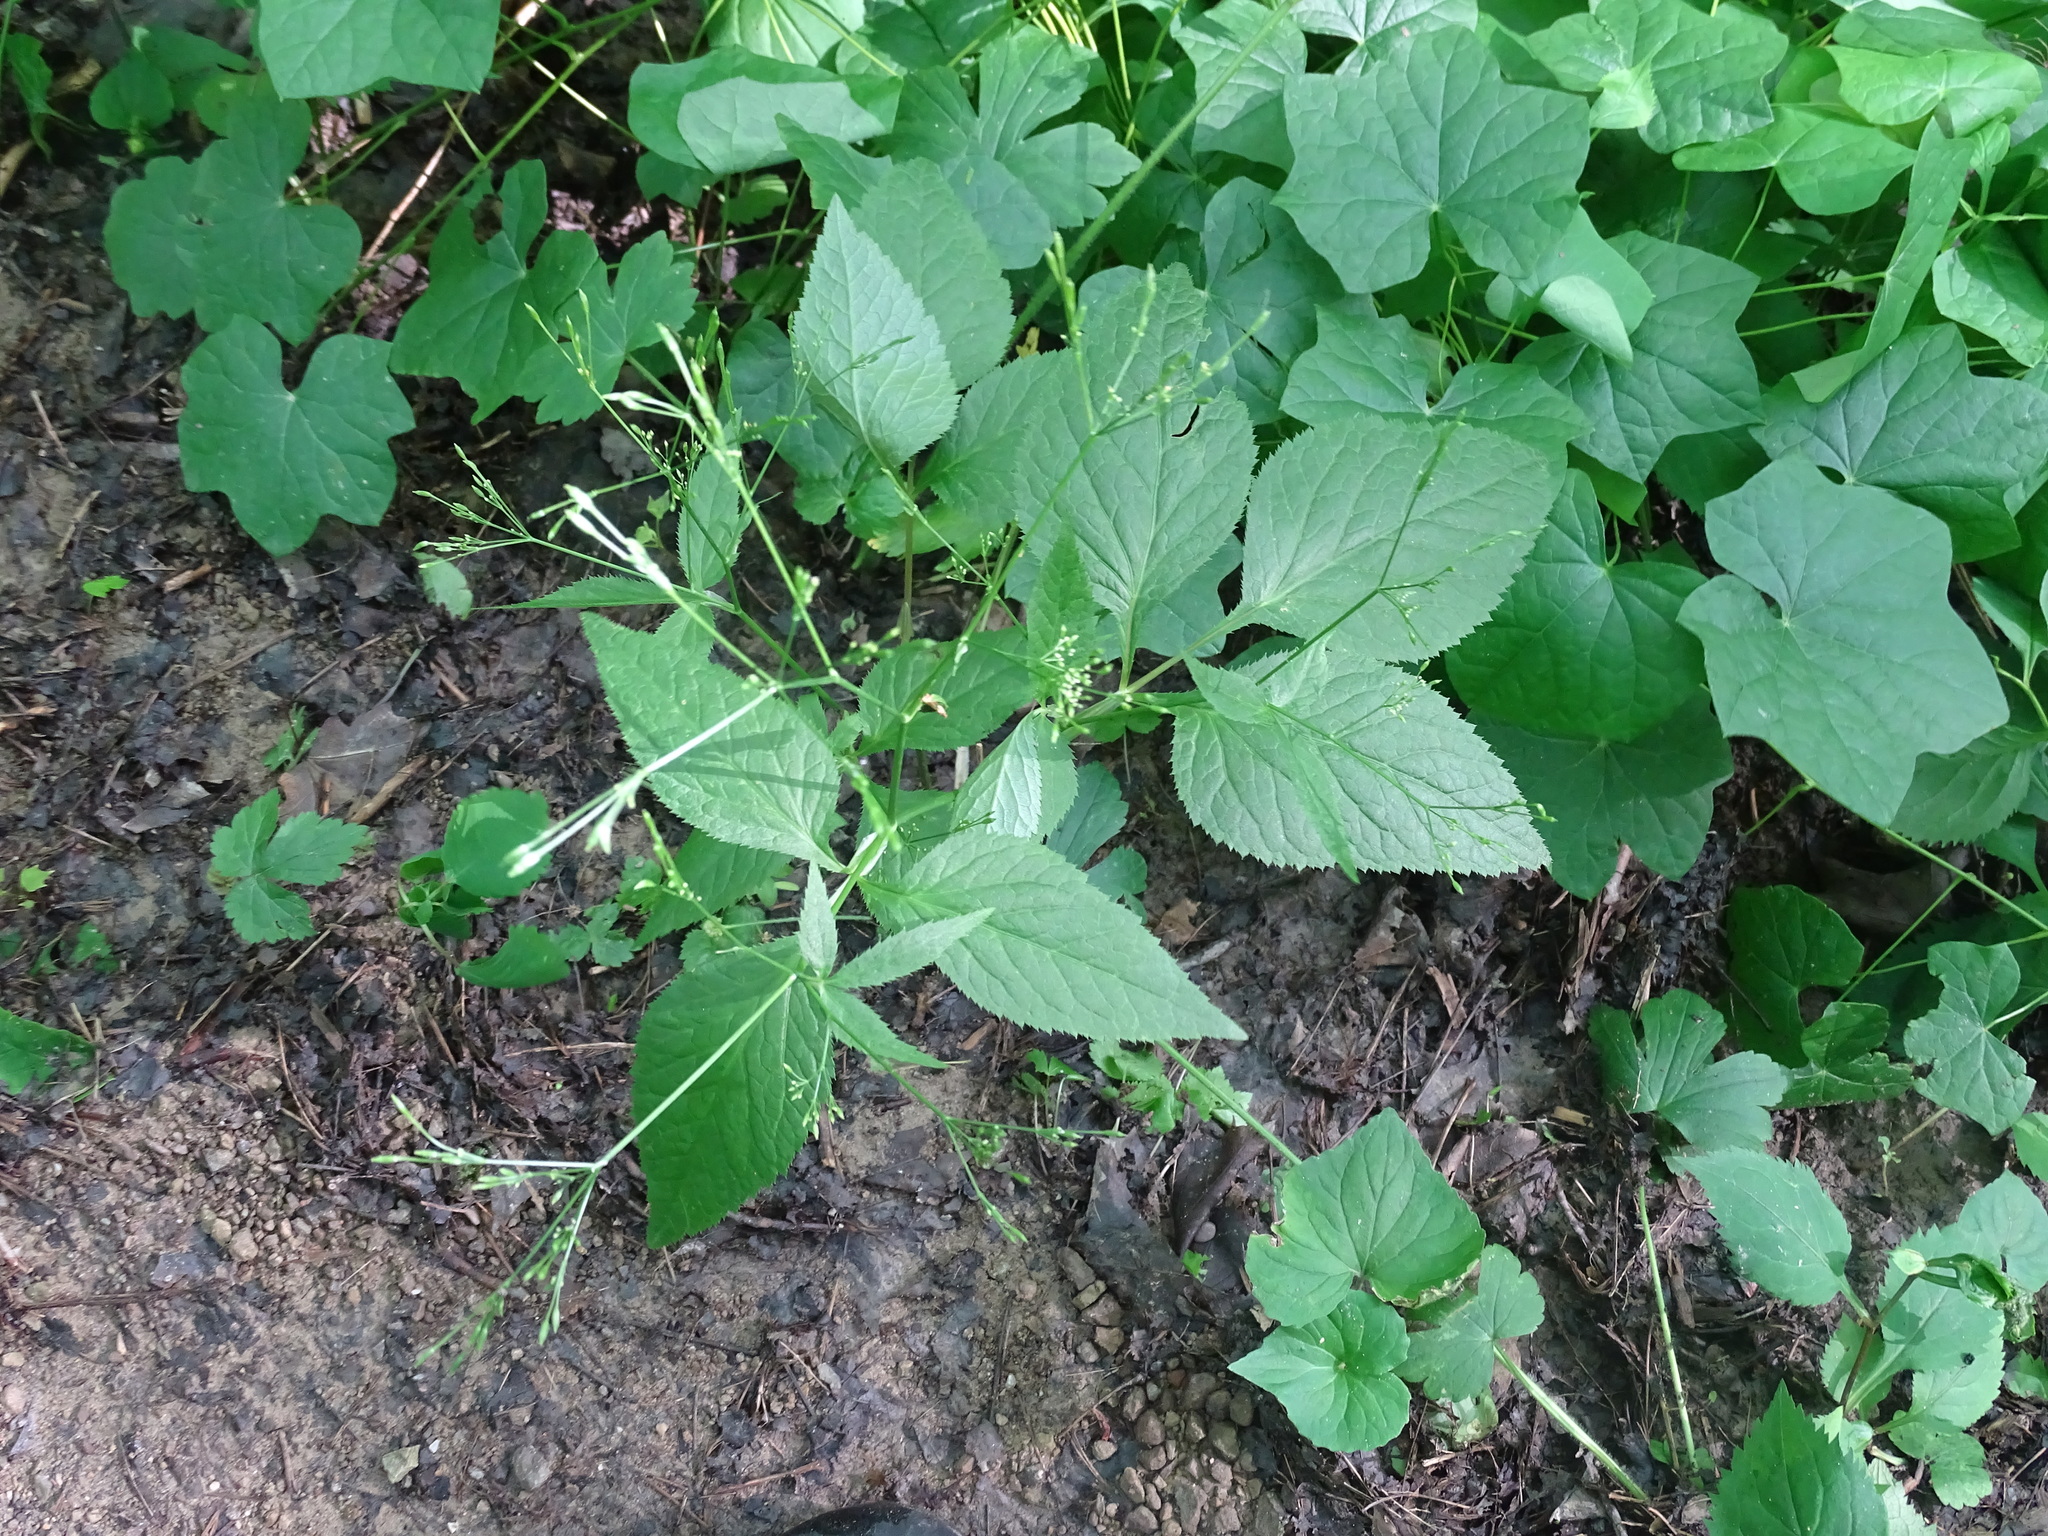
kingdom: Plantae
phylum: Tracheophyta
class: Magnoliopsida
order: Apiales
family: Apiaceae
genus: Cryptotaenia
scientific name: Cryptotaenia canadensis
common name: Honewort
